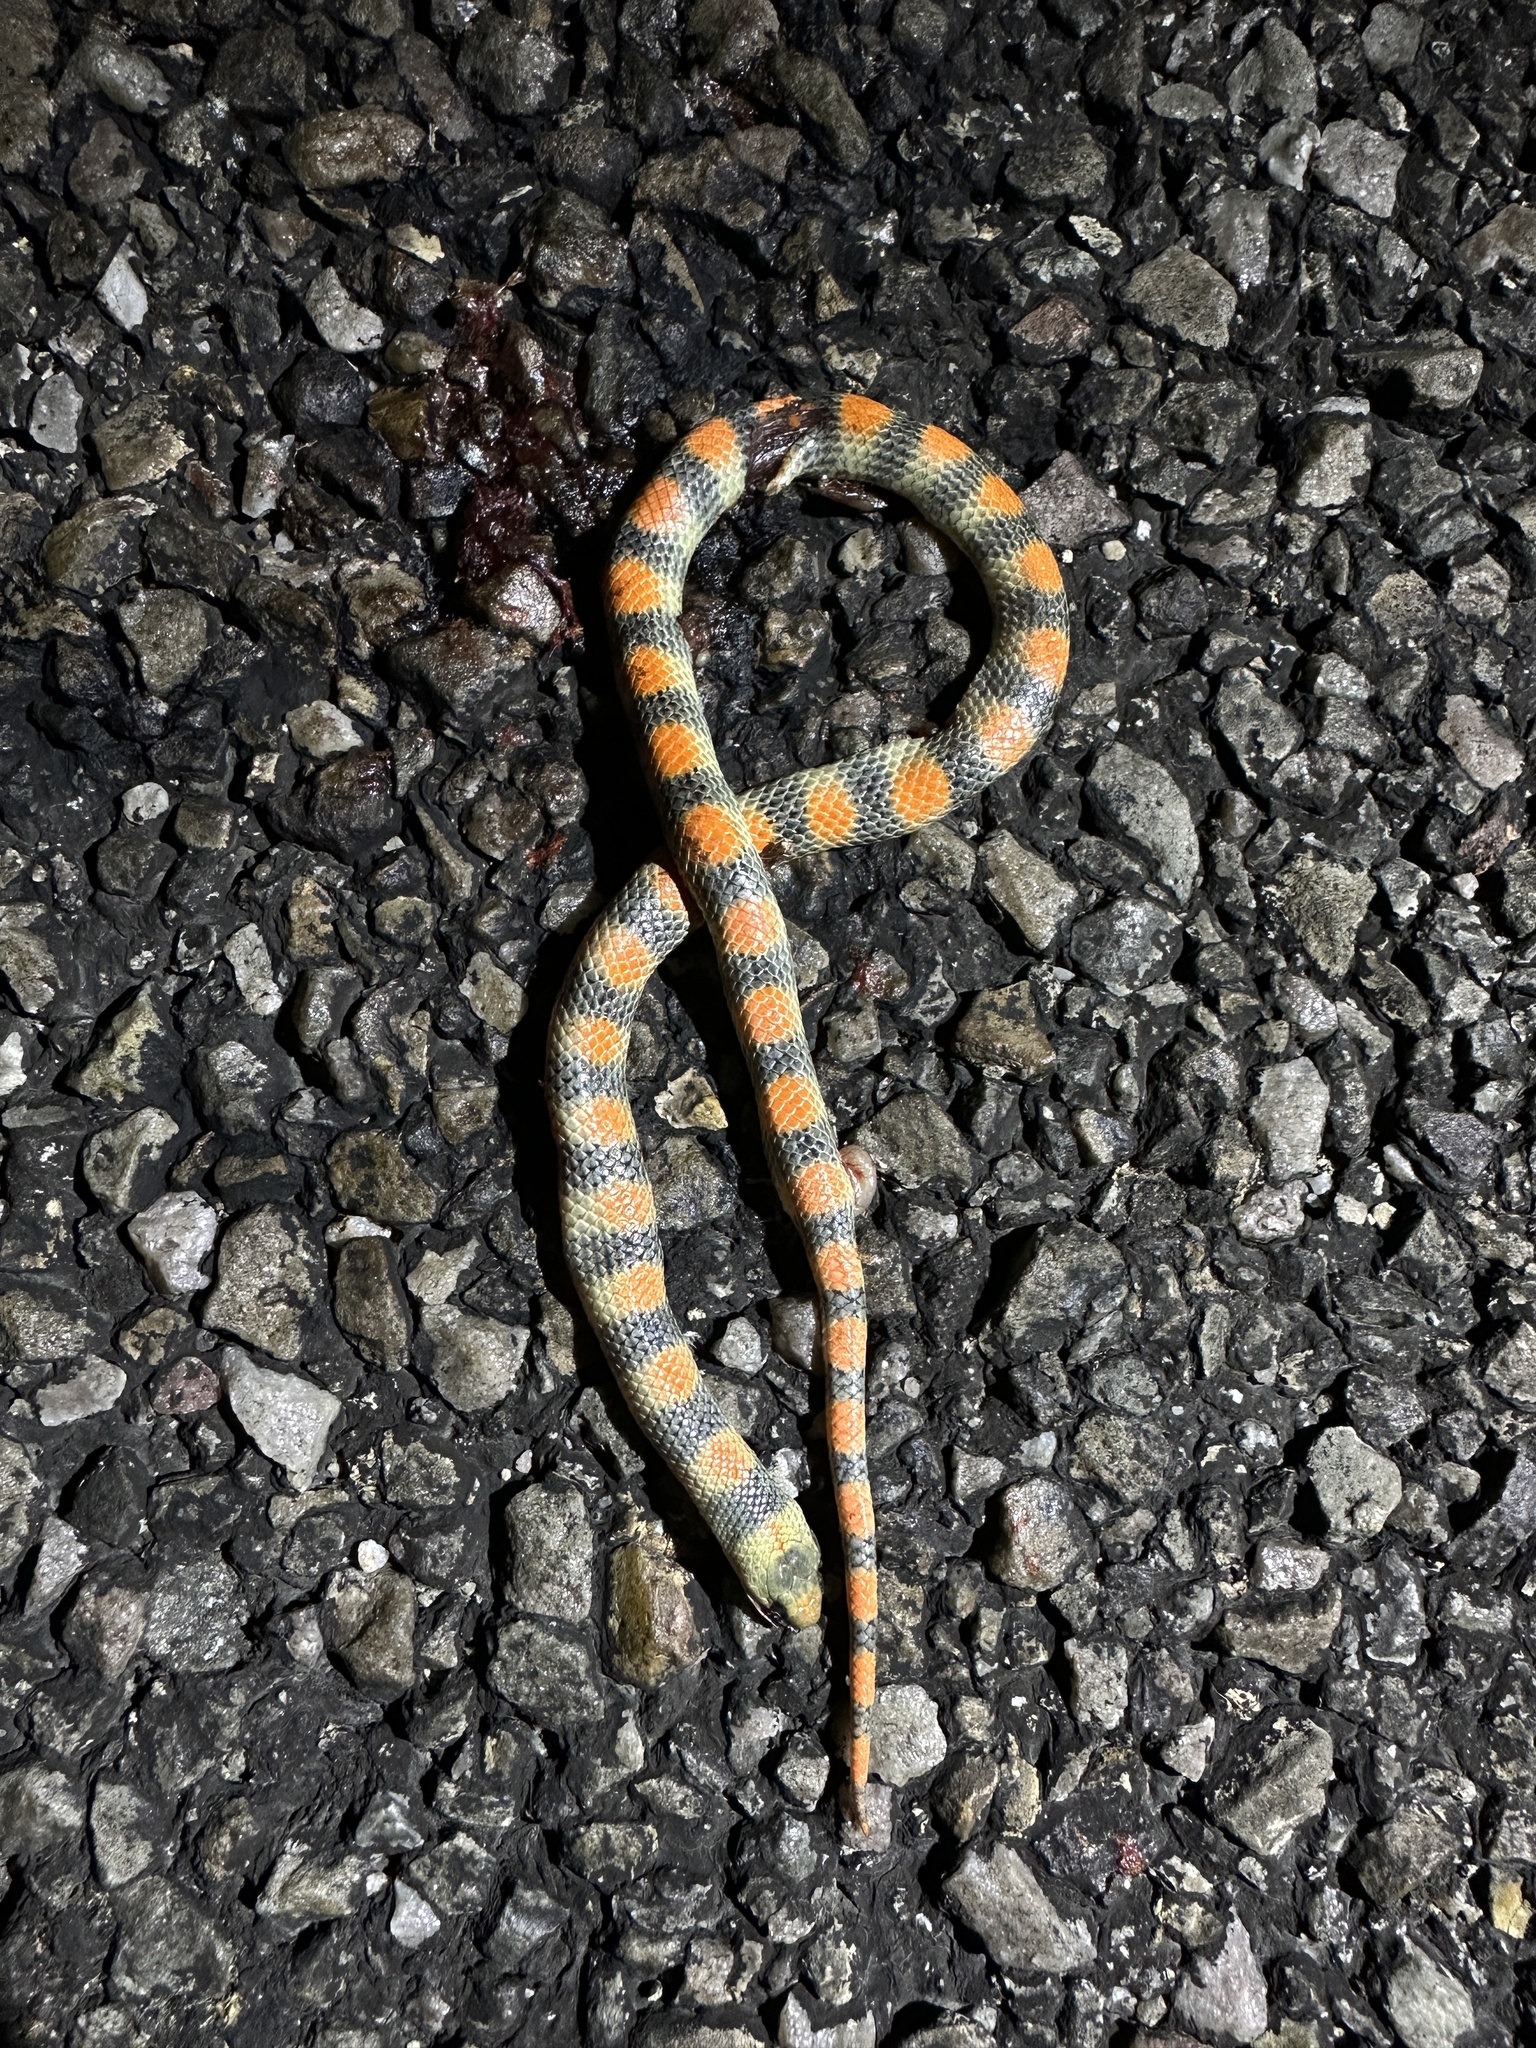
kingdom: Animalia
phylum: Chordata
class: Squamata
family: Colubridae
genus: Sonora
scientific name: Sonora semiannulata
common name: Ground snake
